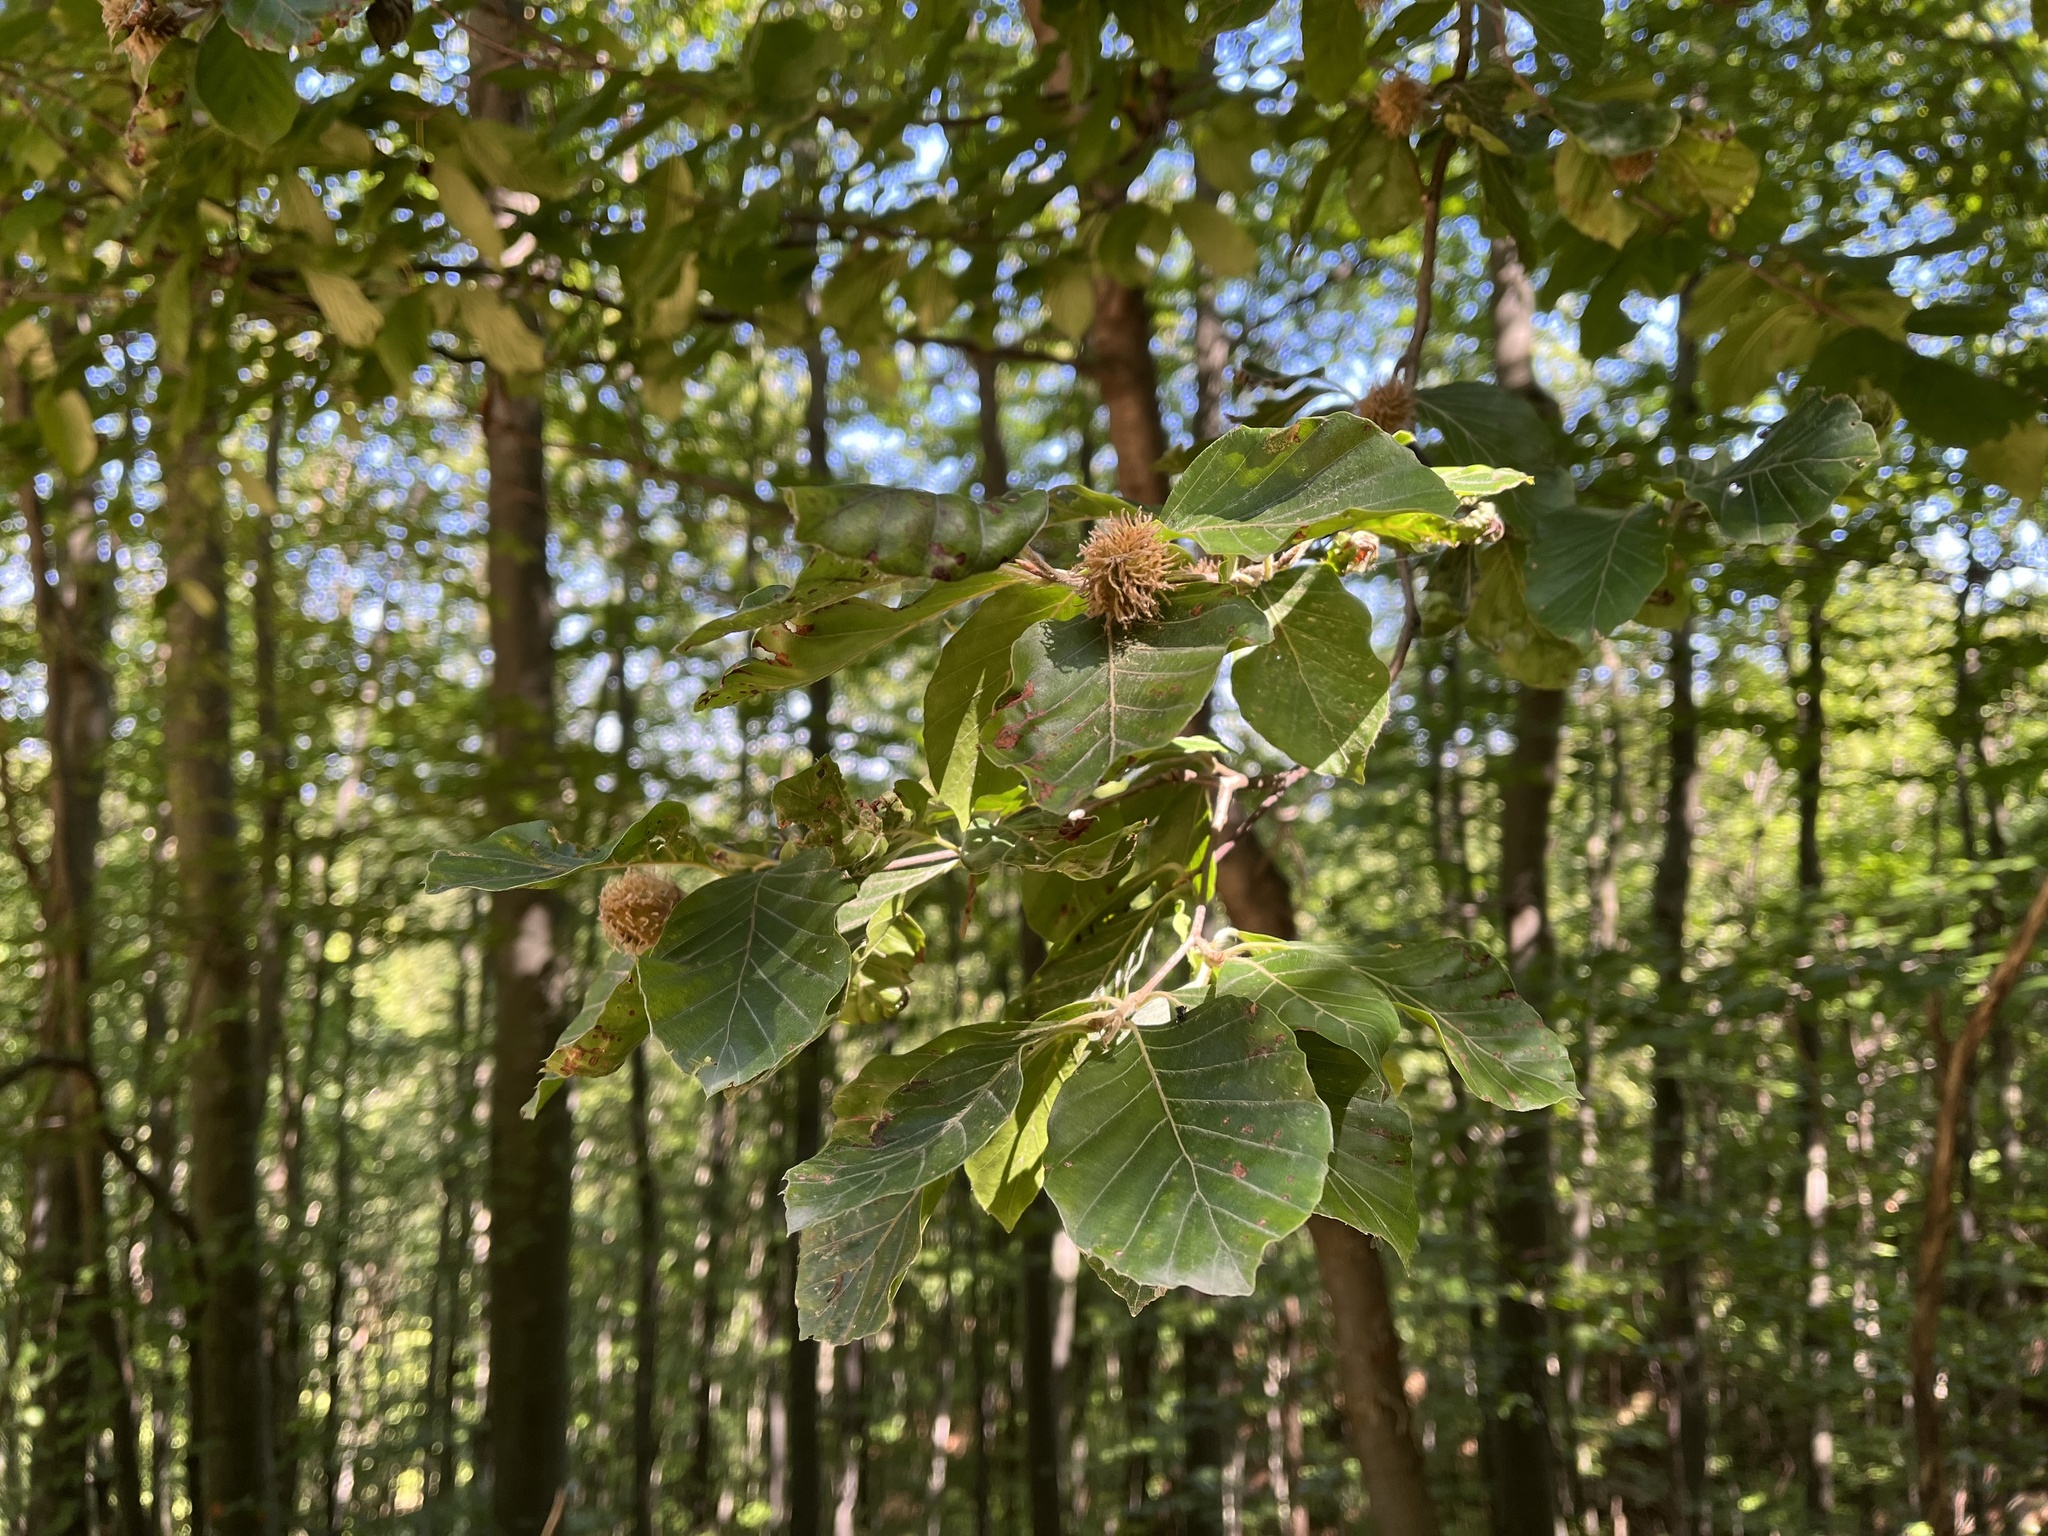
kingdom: Plantae
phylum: Tracheophyta
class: Magnoliopsida
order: Fagales
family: Fagaceae
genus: Fagus
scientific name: Fagus sylvatica
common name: Beech
